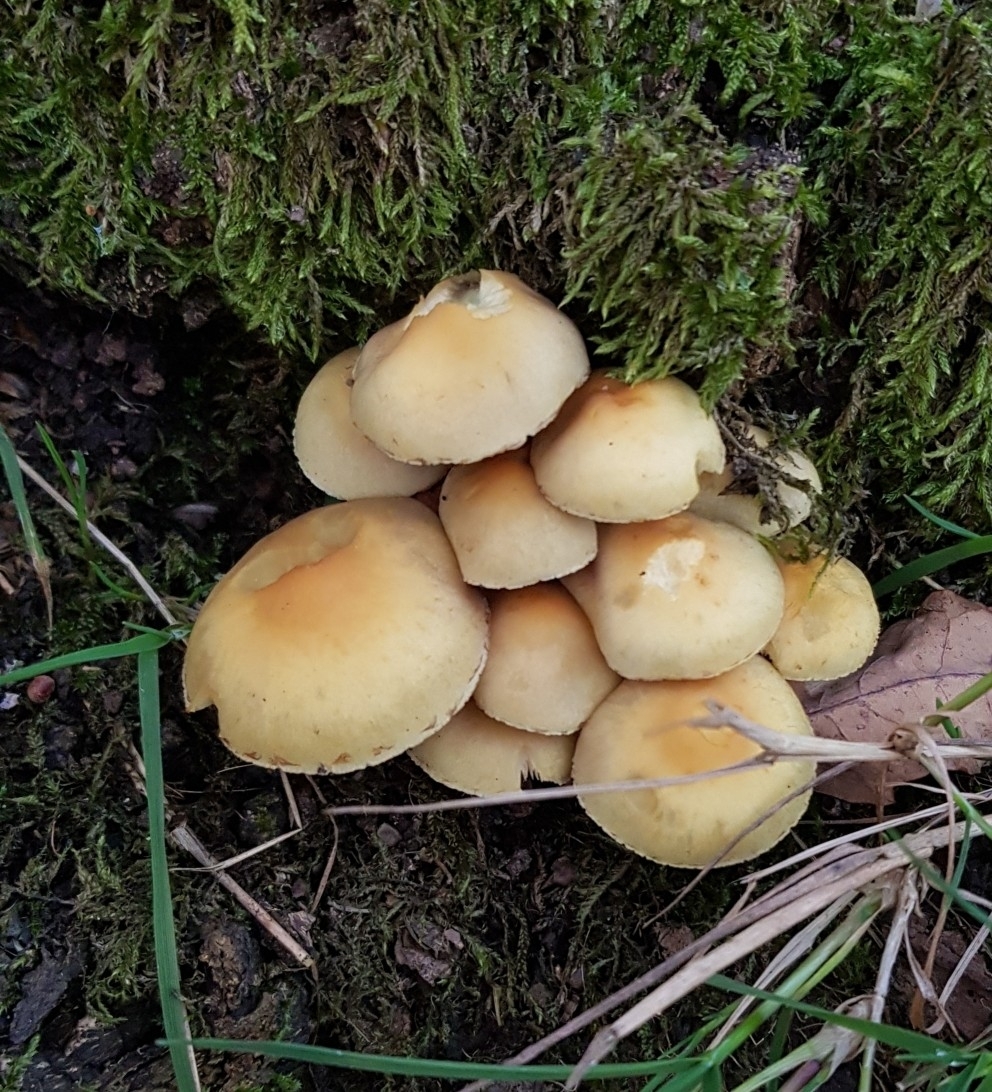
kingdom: Fungi
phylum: Basidiomycota
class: Agaricomycetes
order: Agaricales
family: Strophariaceae
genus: Hypholoma
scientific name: Hypholoma fasciculare
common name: Sulphur tuft
